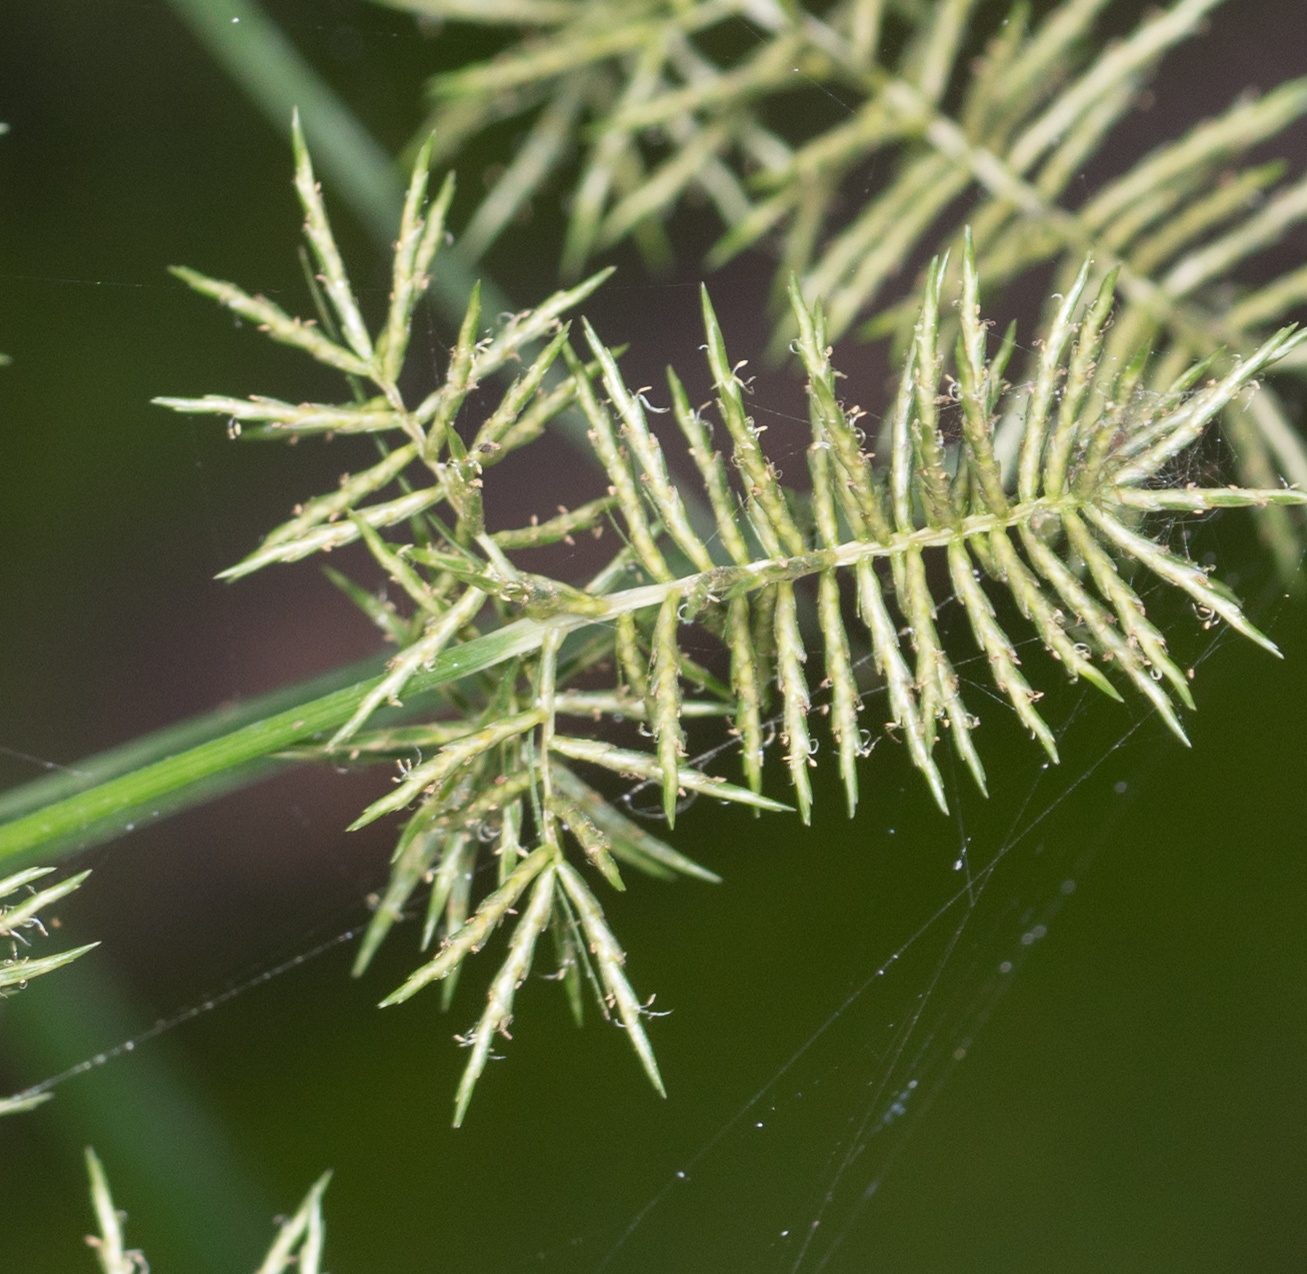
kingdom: Plantae
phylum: Tracheophyta
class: Liliopsida
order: Poales
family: Cyperaceae
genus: Cyperus
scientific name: Cyperus odoratus
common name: Fragrant flatsedge
